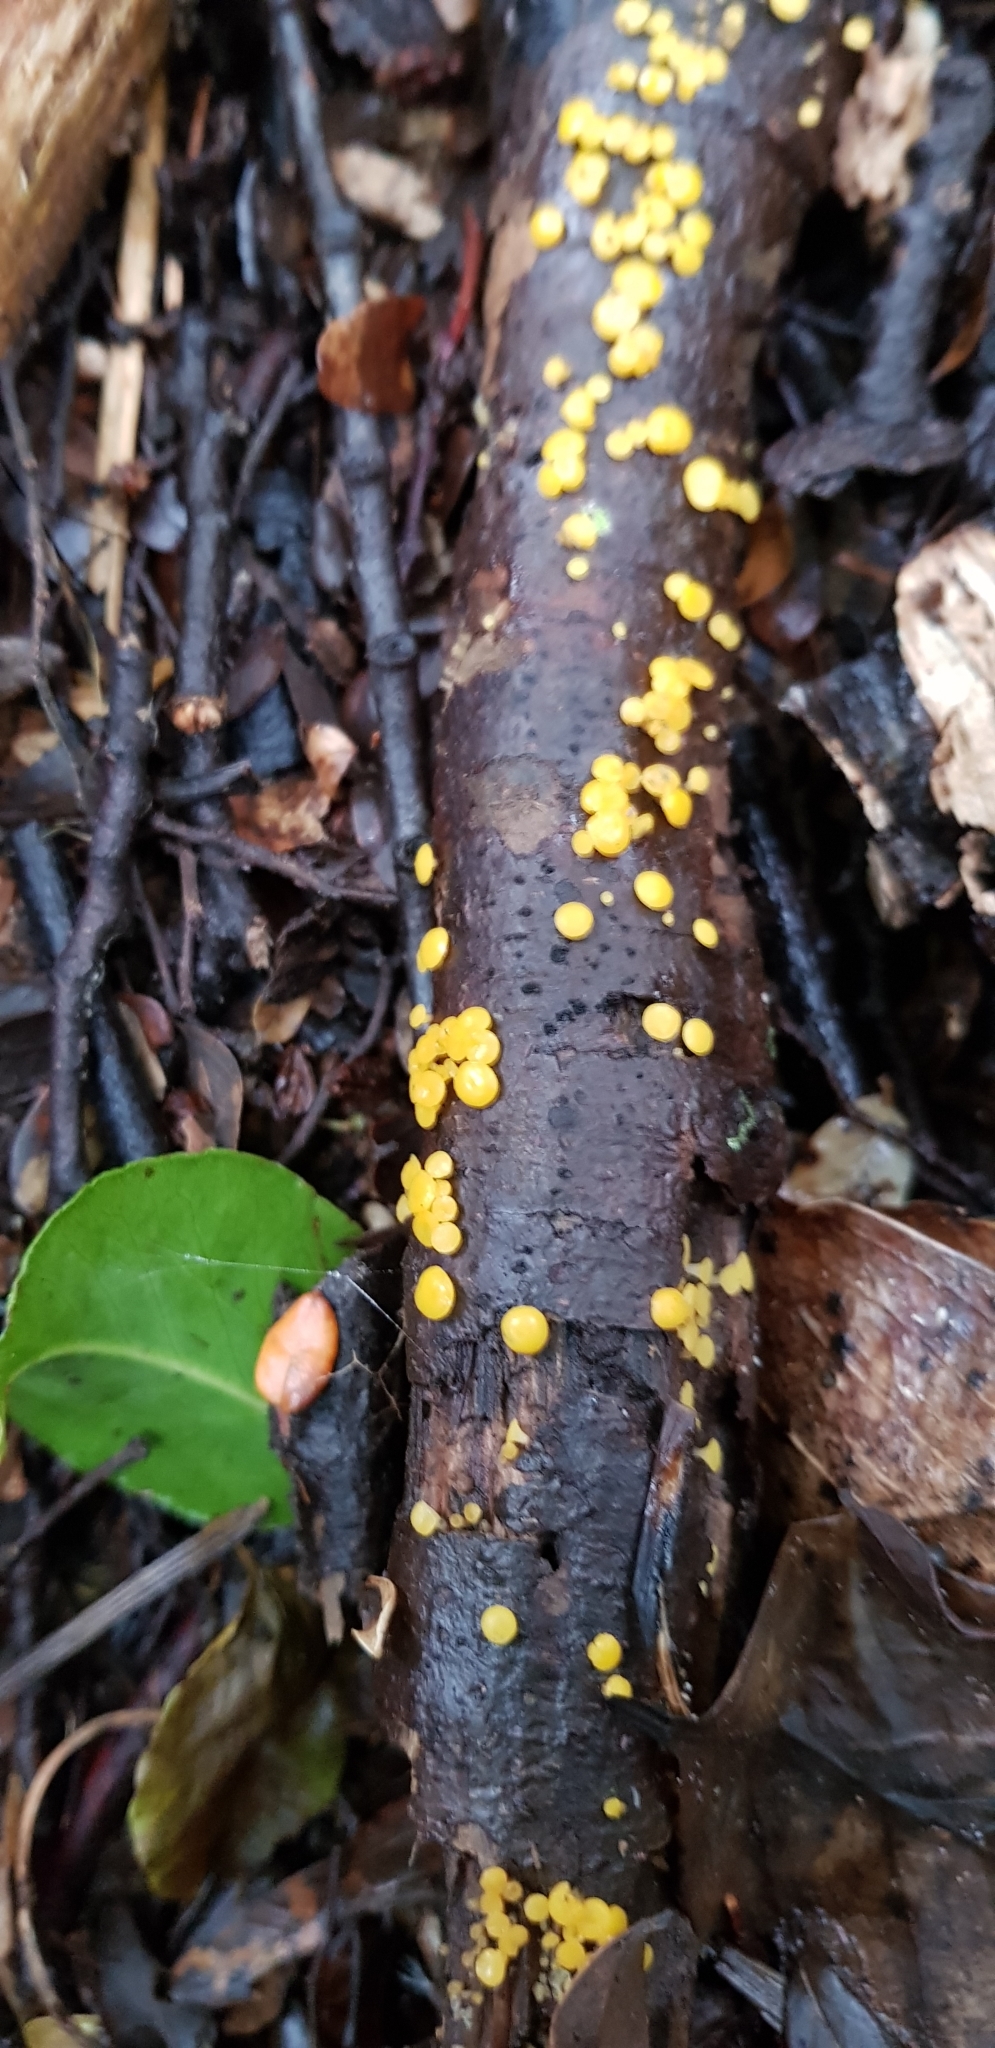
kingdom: Fungi
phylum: Ascomycota
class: Leotiomycetes
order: Helotiales
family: Pezizellaceae
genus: Calycina
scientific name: Calycina citrina
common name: Yellow fairy cups
